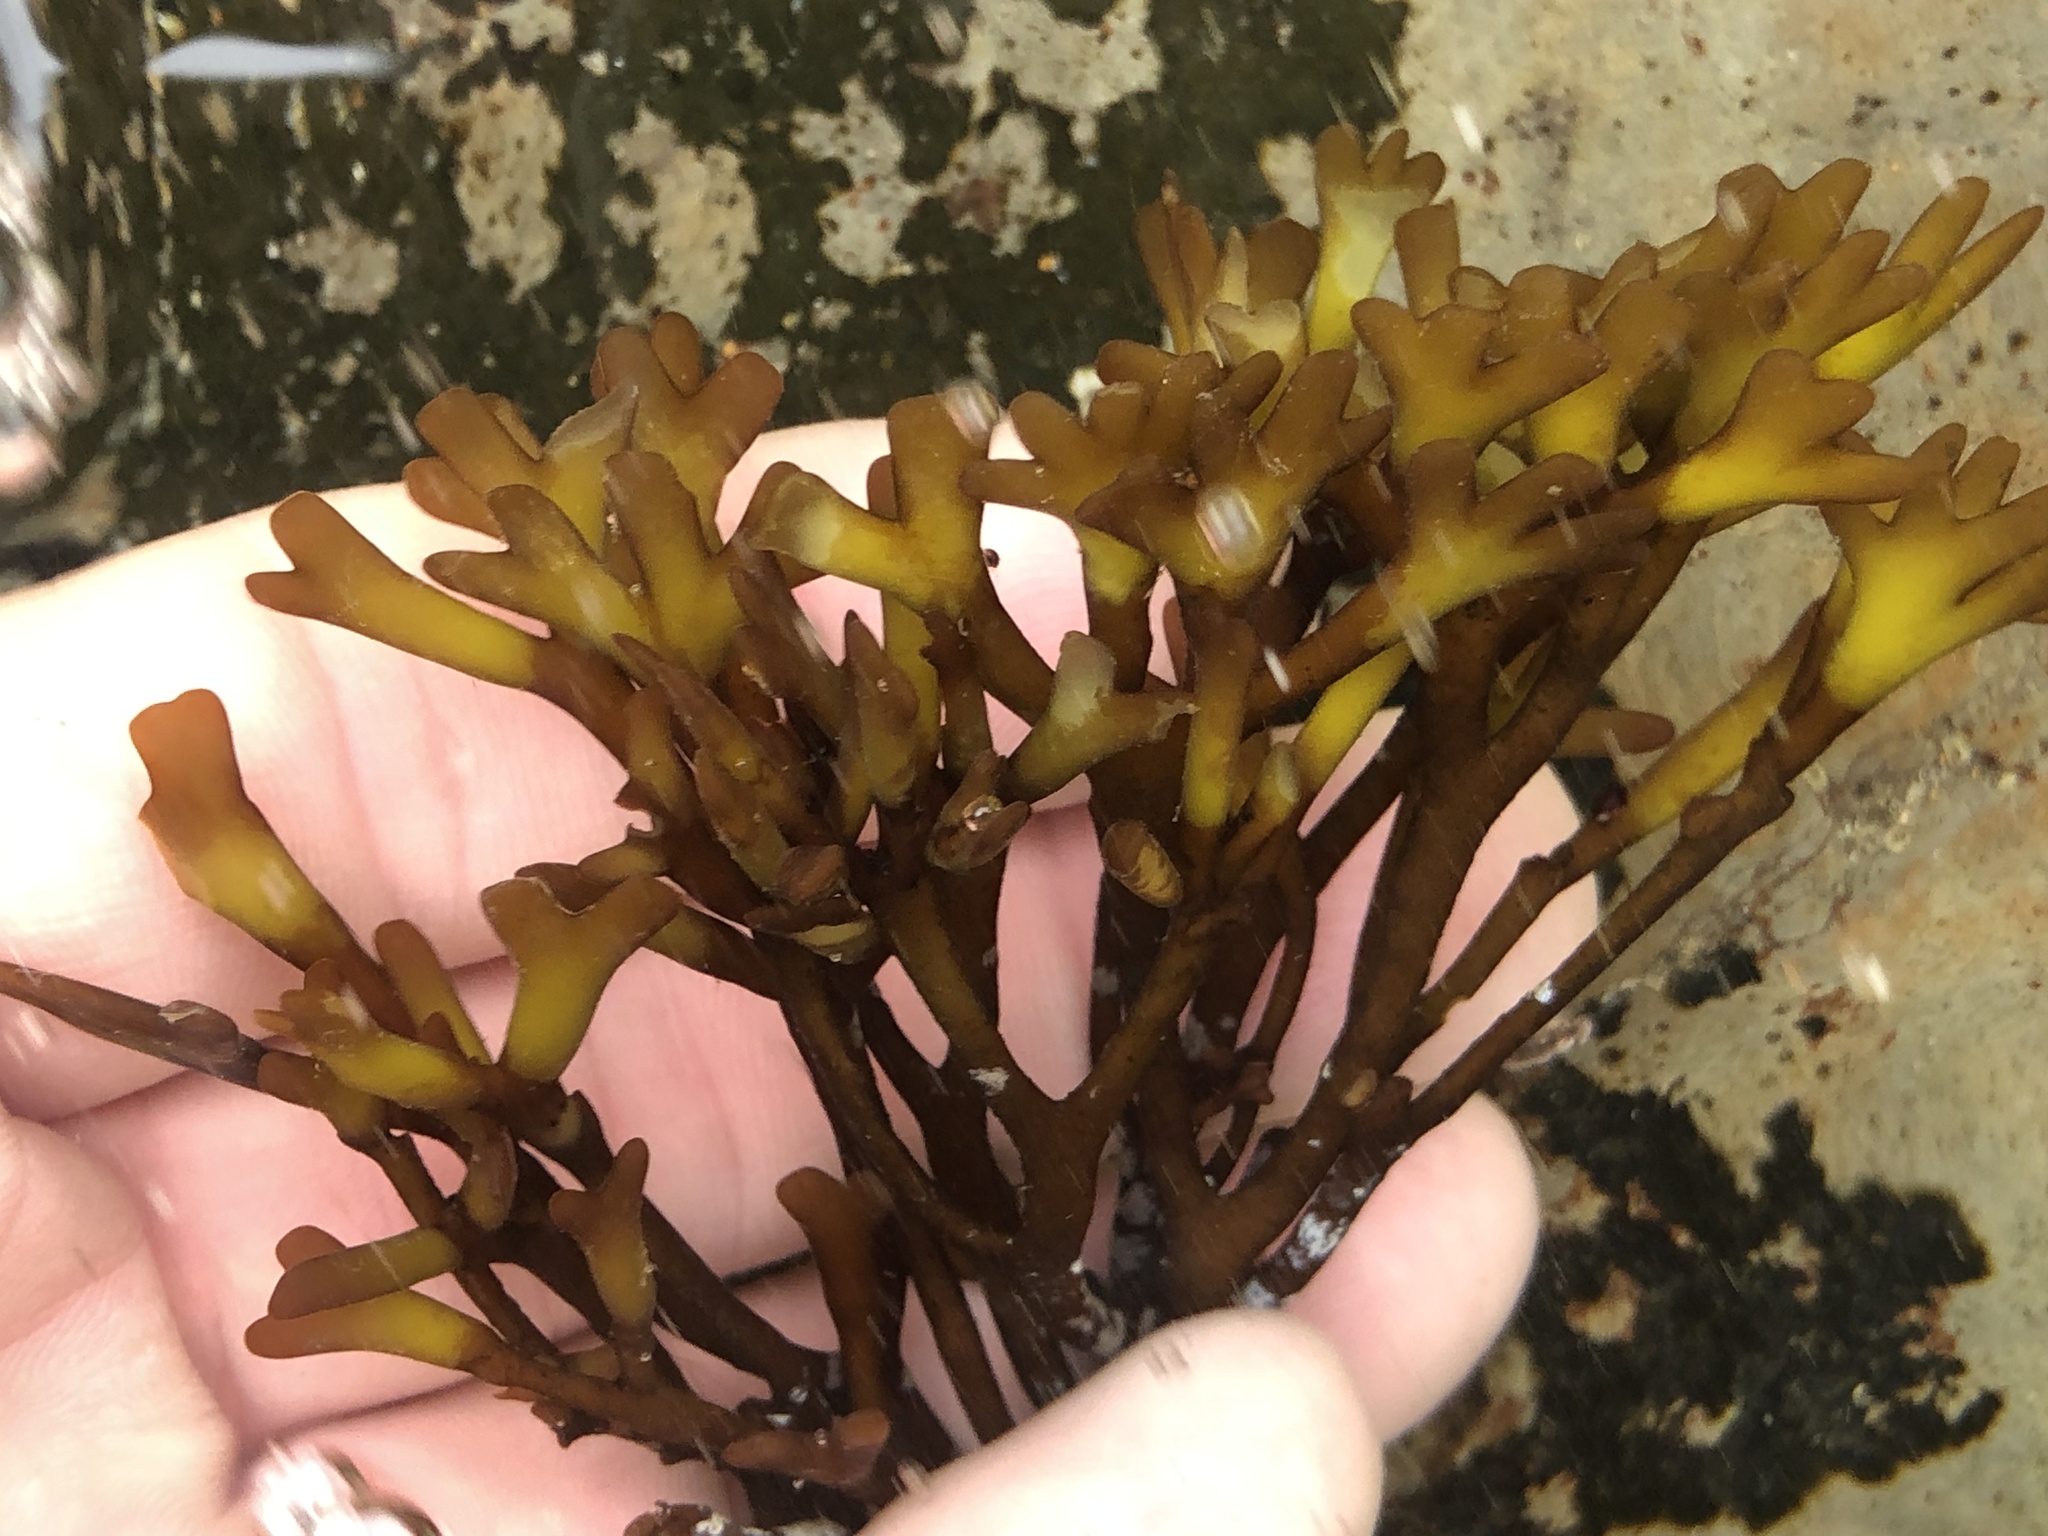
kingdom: Plantae
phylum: Rhodophyta
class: Florideophyceae
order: Gigartinales
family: Phyllophoraceae
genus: Ahnfeltiopsis
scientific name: Ahnfeltiopsis linearis
